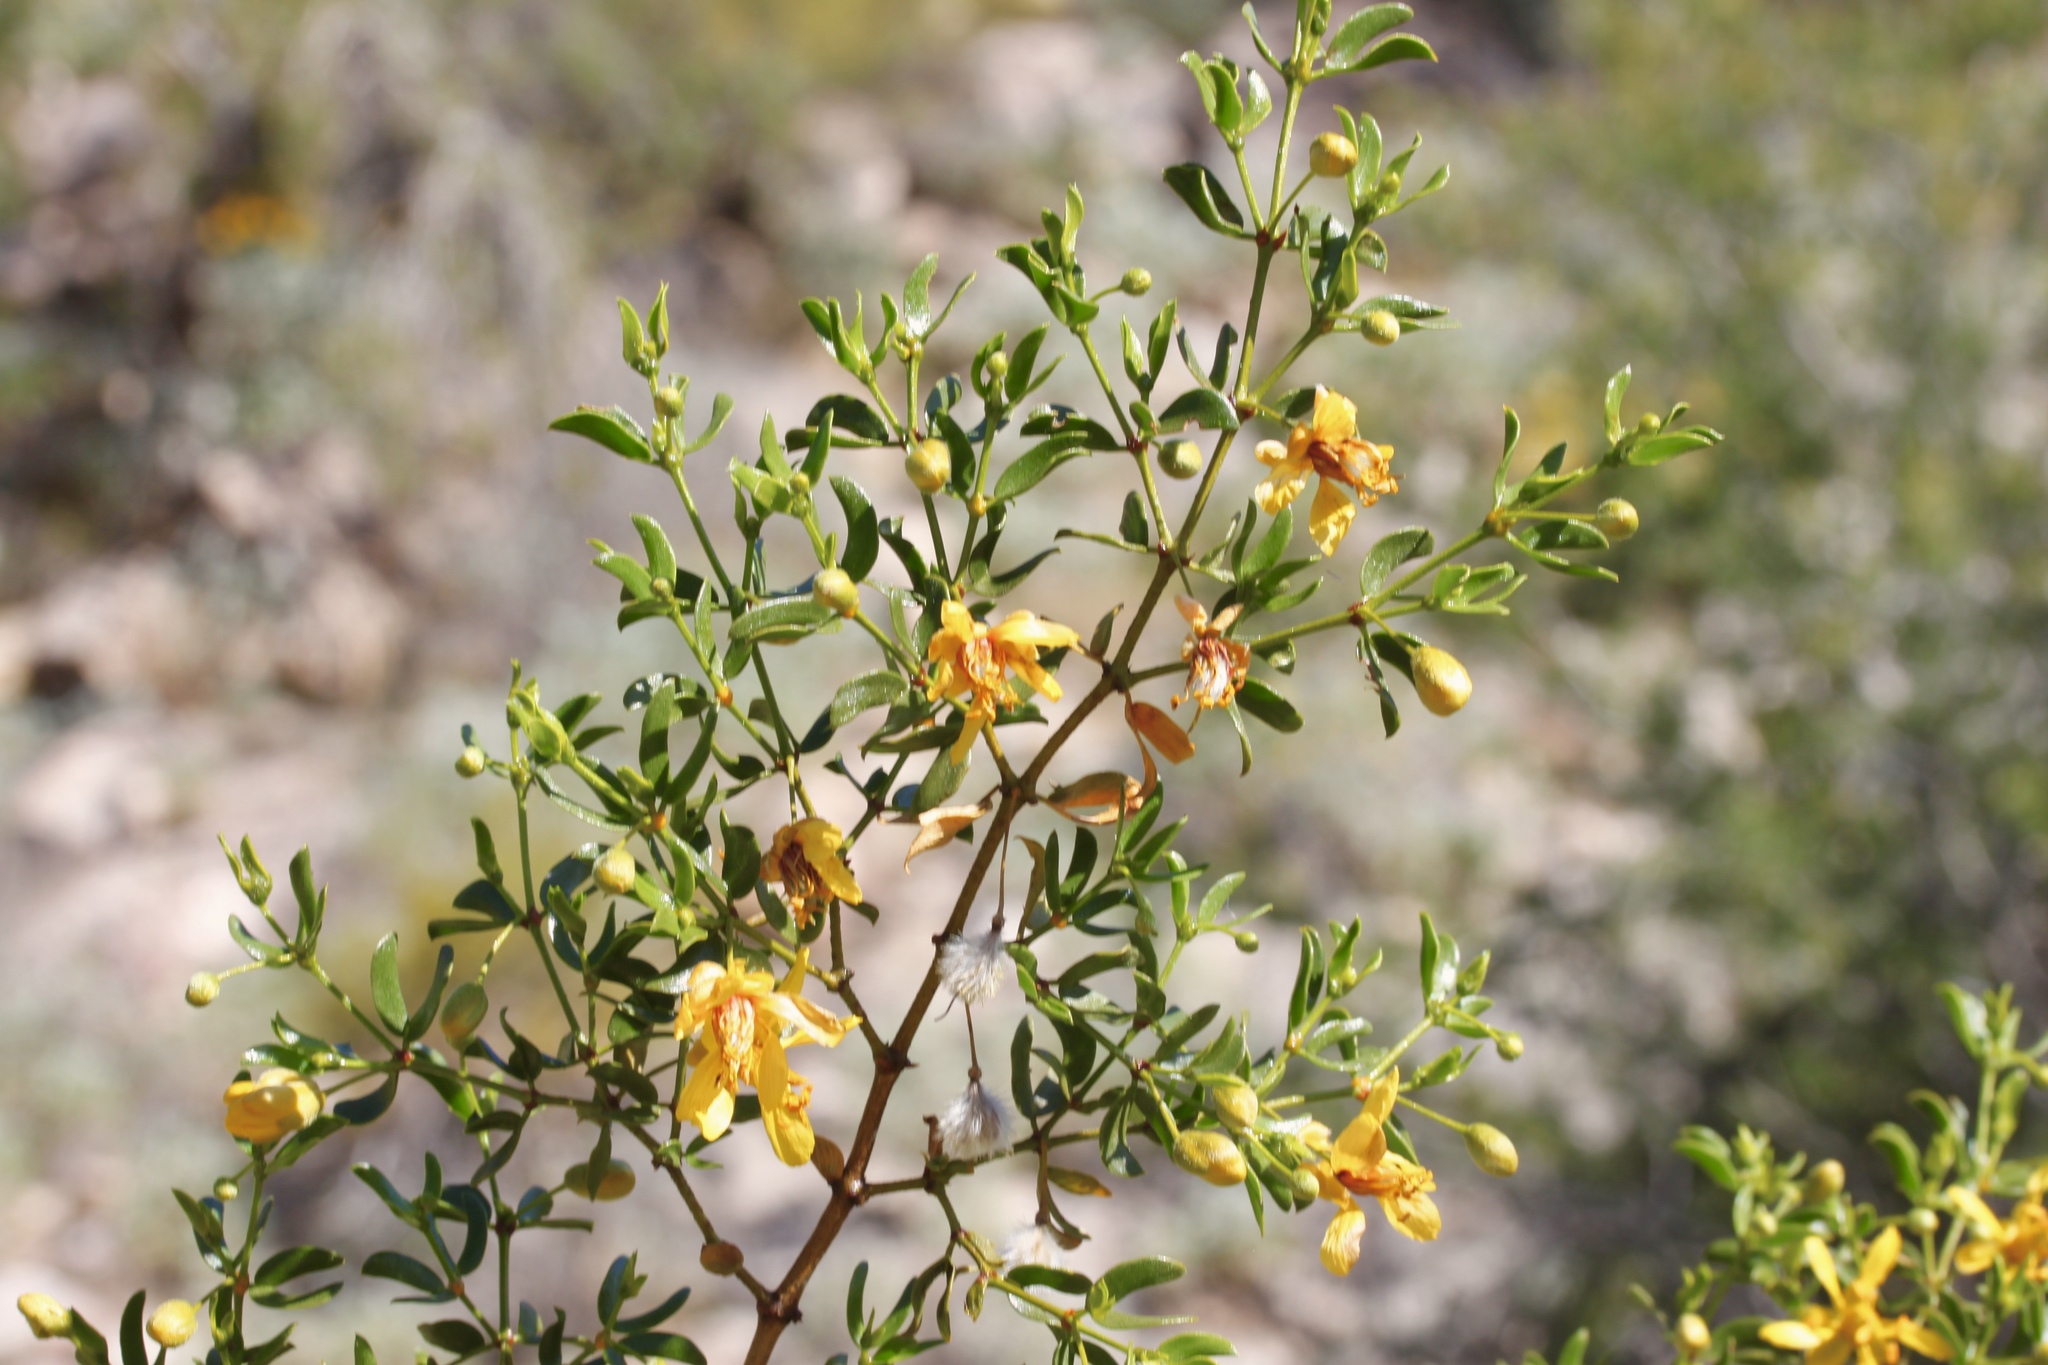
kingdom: Plantae
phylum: Tracheophyta
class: Magnoliopsida
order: Zygophyllales
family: Zygophyllaceae
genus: Larrea
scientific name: Larrea tridentata
